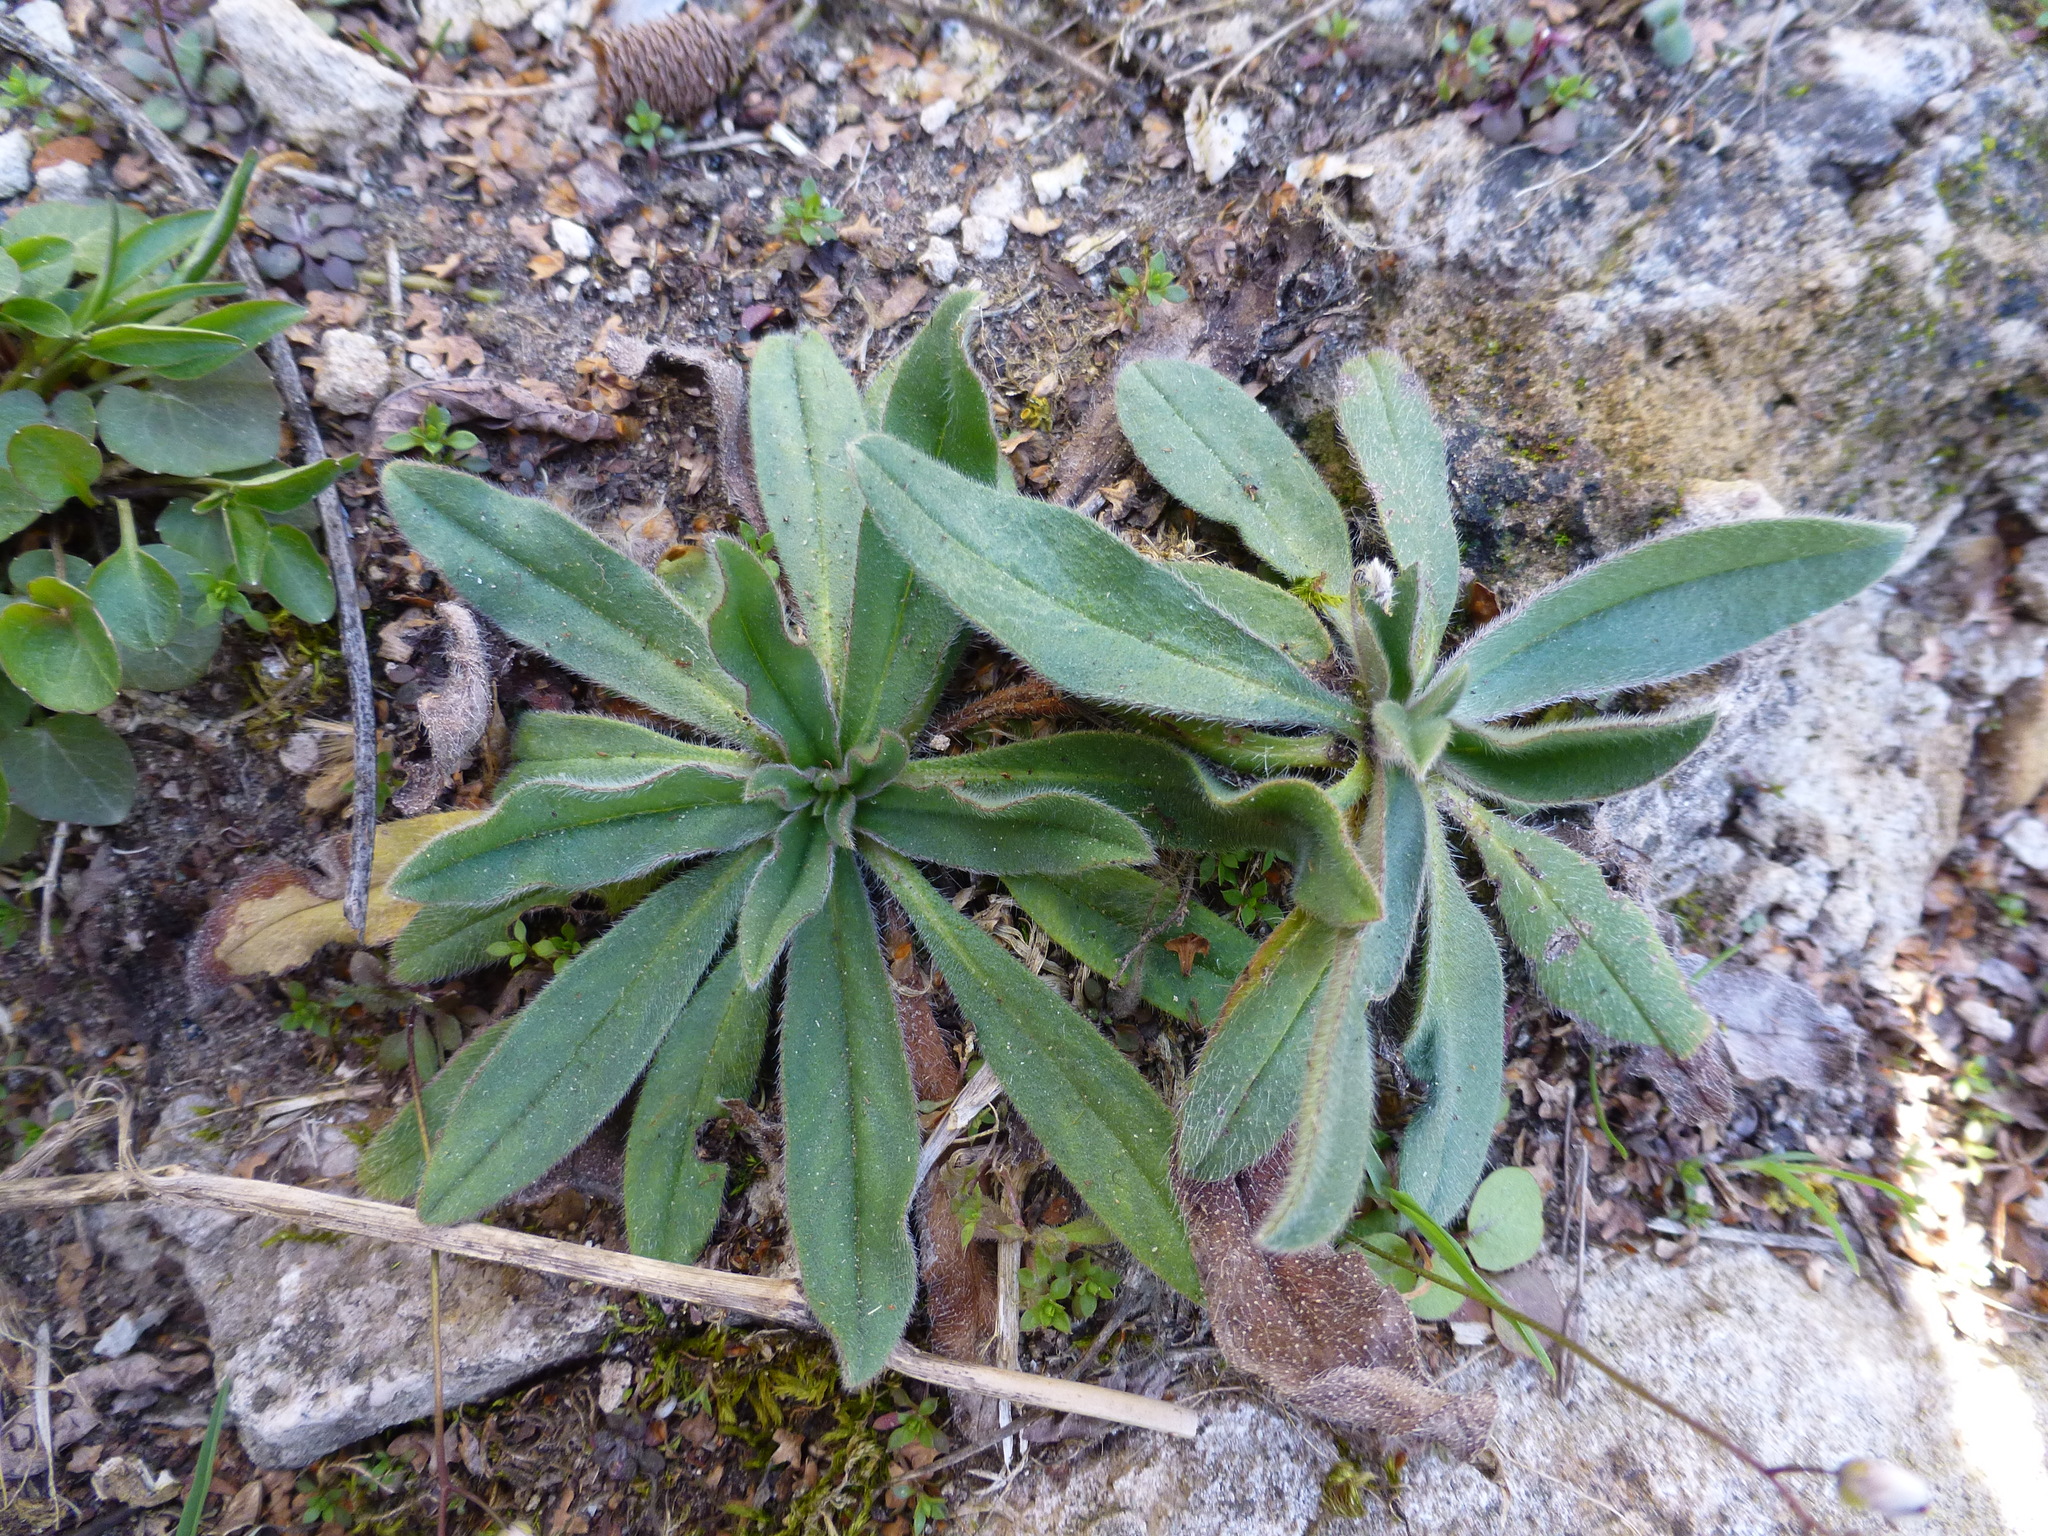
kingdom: Plantae
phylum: Tracheophyta
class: Magnoliopsida
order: Boraginales
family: Boraginaceae
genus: Echium
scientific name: Echium vulgare
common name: Common viper's bugloss
